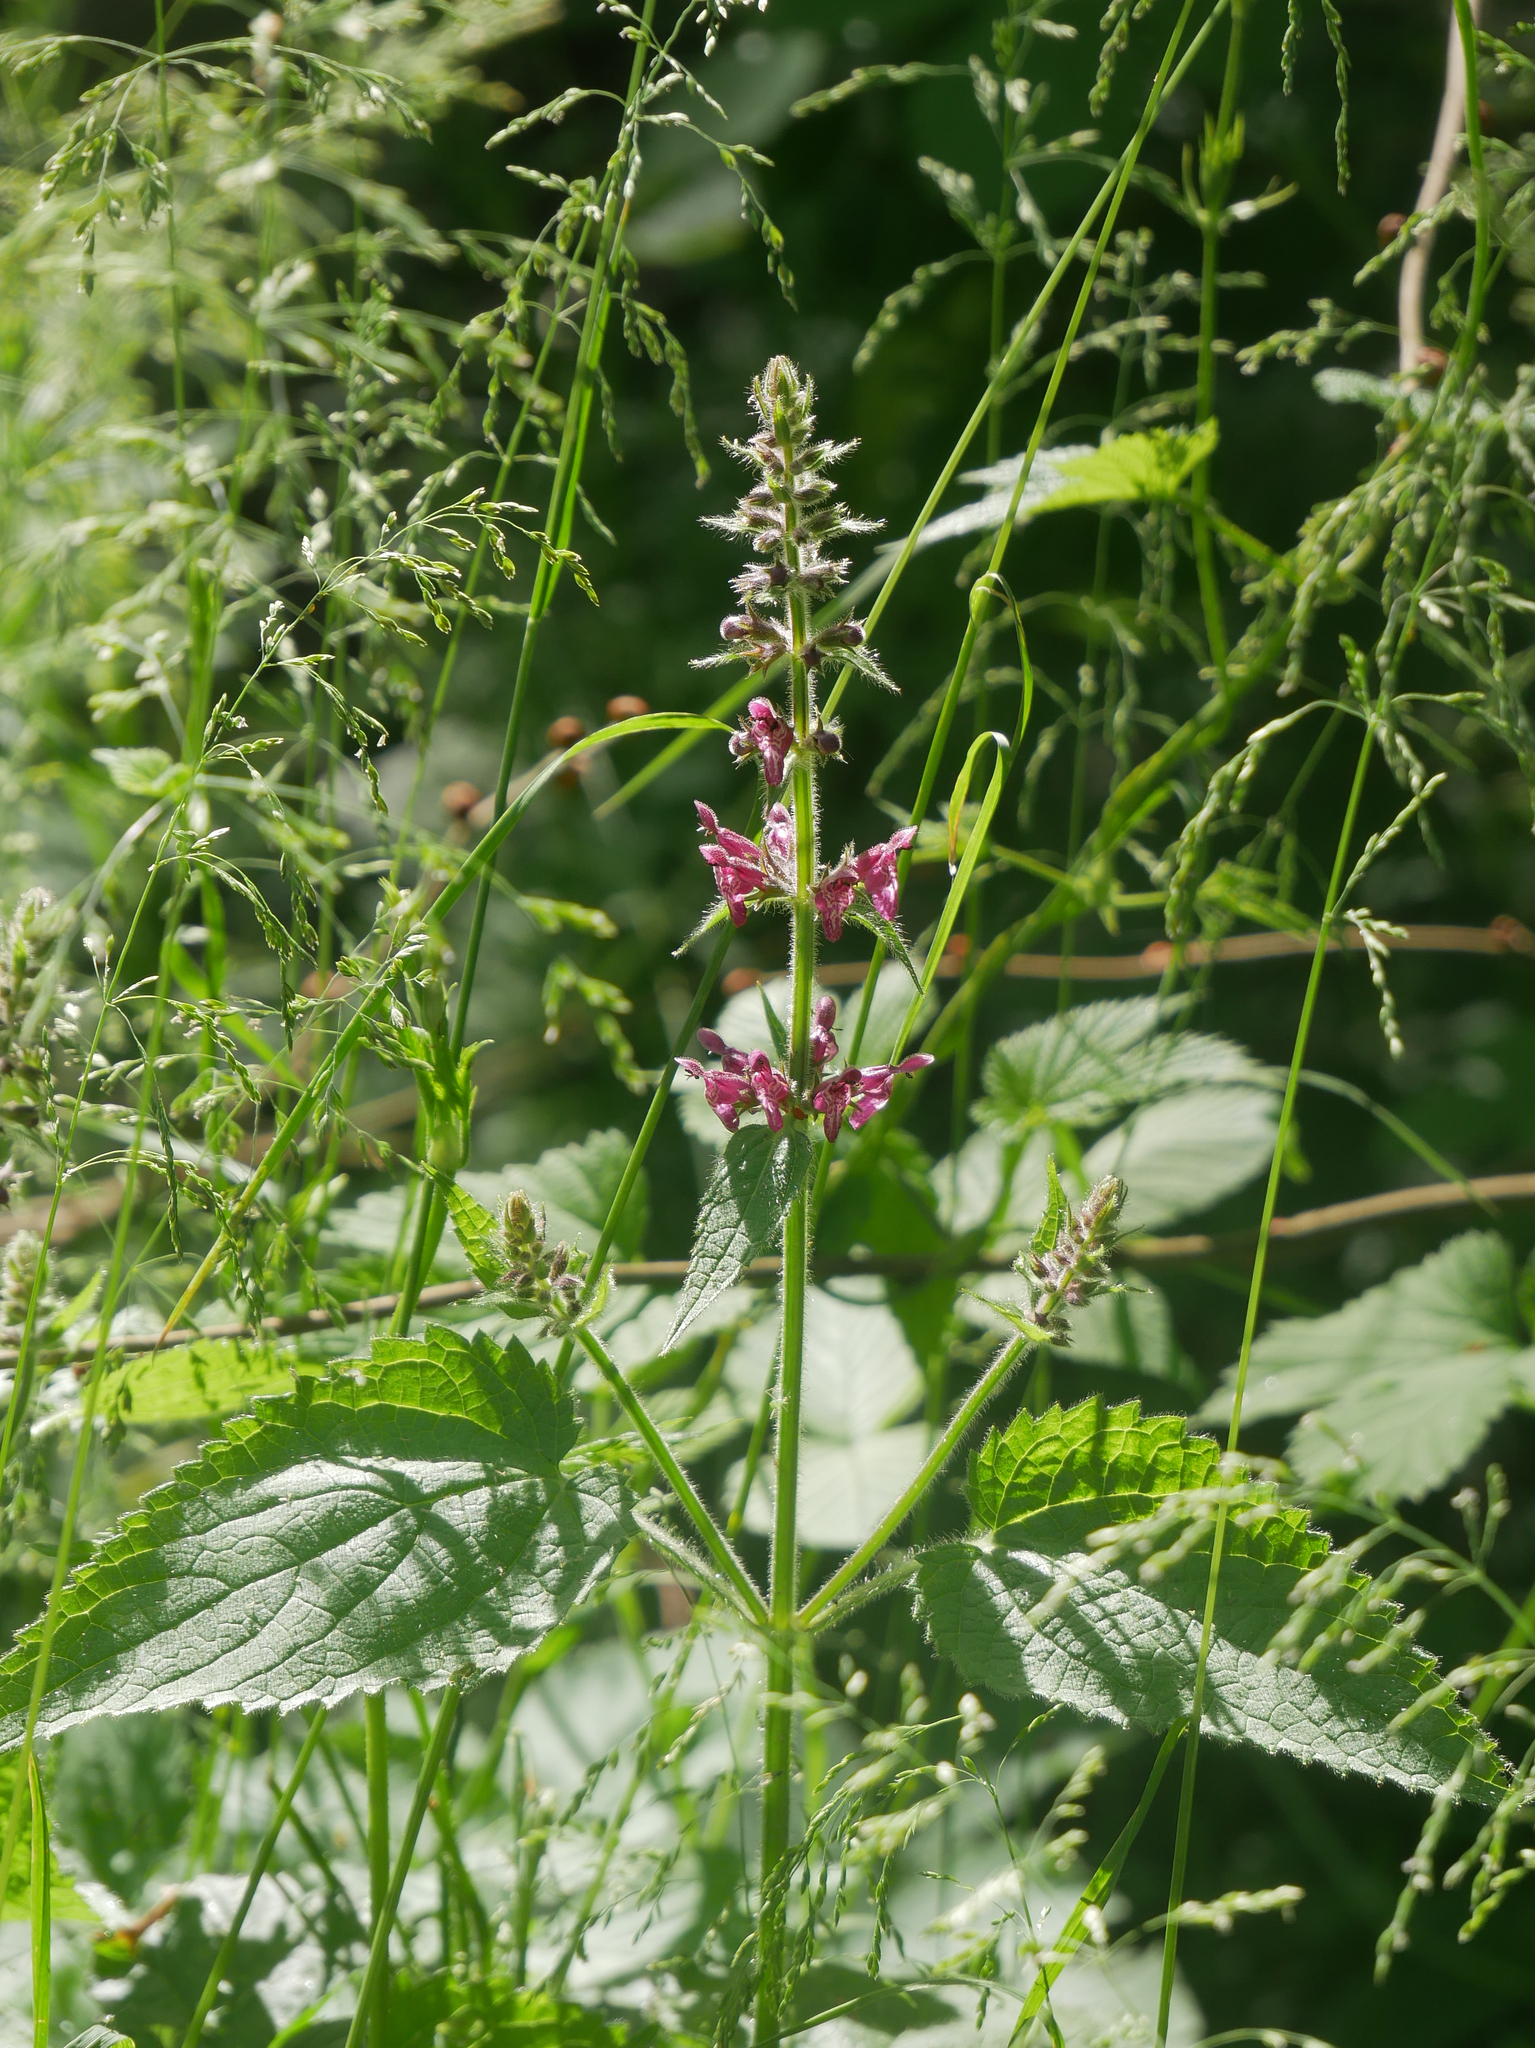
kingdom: Plantae
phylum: Tracheophyta
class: Magnoliopsida
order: Lamiales
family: Lamiaceae
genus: Stachys
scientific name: Stachys sylvatica
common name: Hedge woundwort
